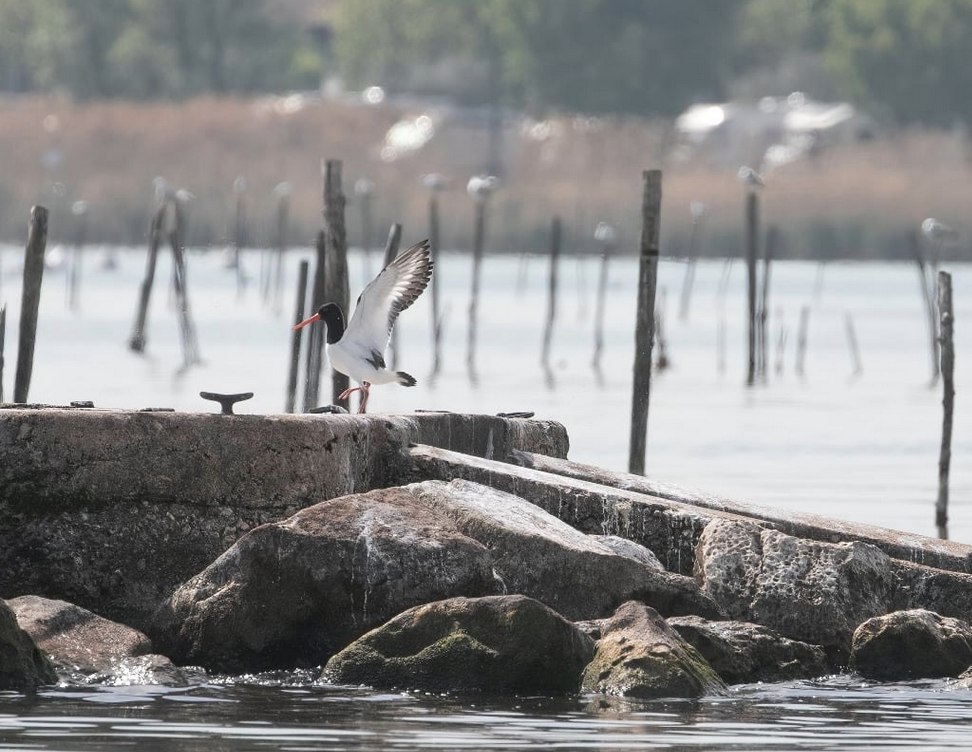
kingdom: Animalia
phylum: Chordata
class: Aves
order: Charadriiformes
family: Haematopodidae
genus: Haematopus
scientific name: Haematopus ostralegus
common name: Eurasian oystercatcher
